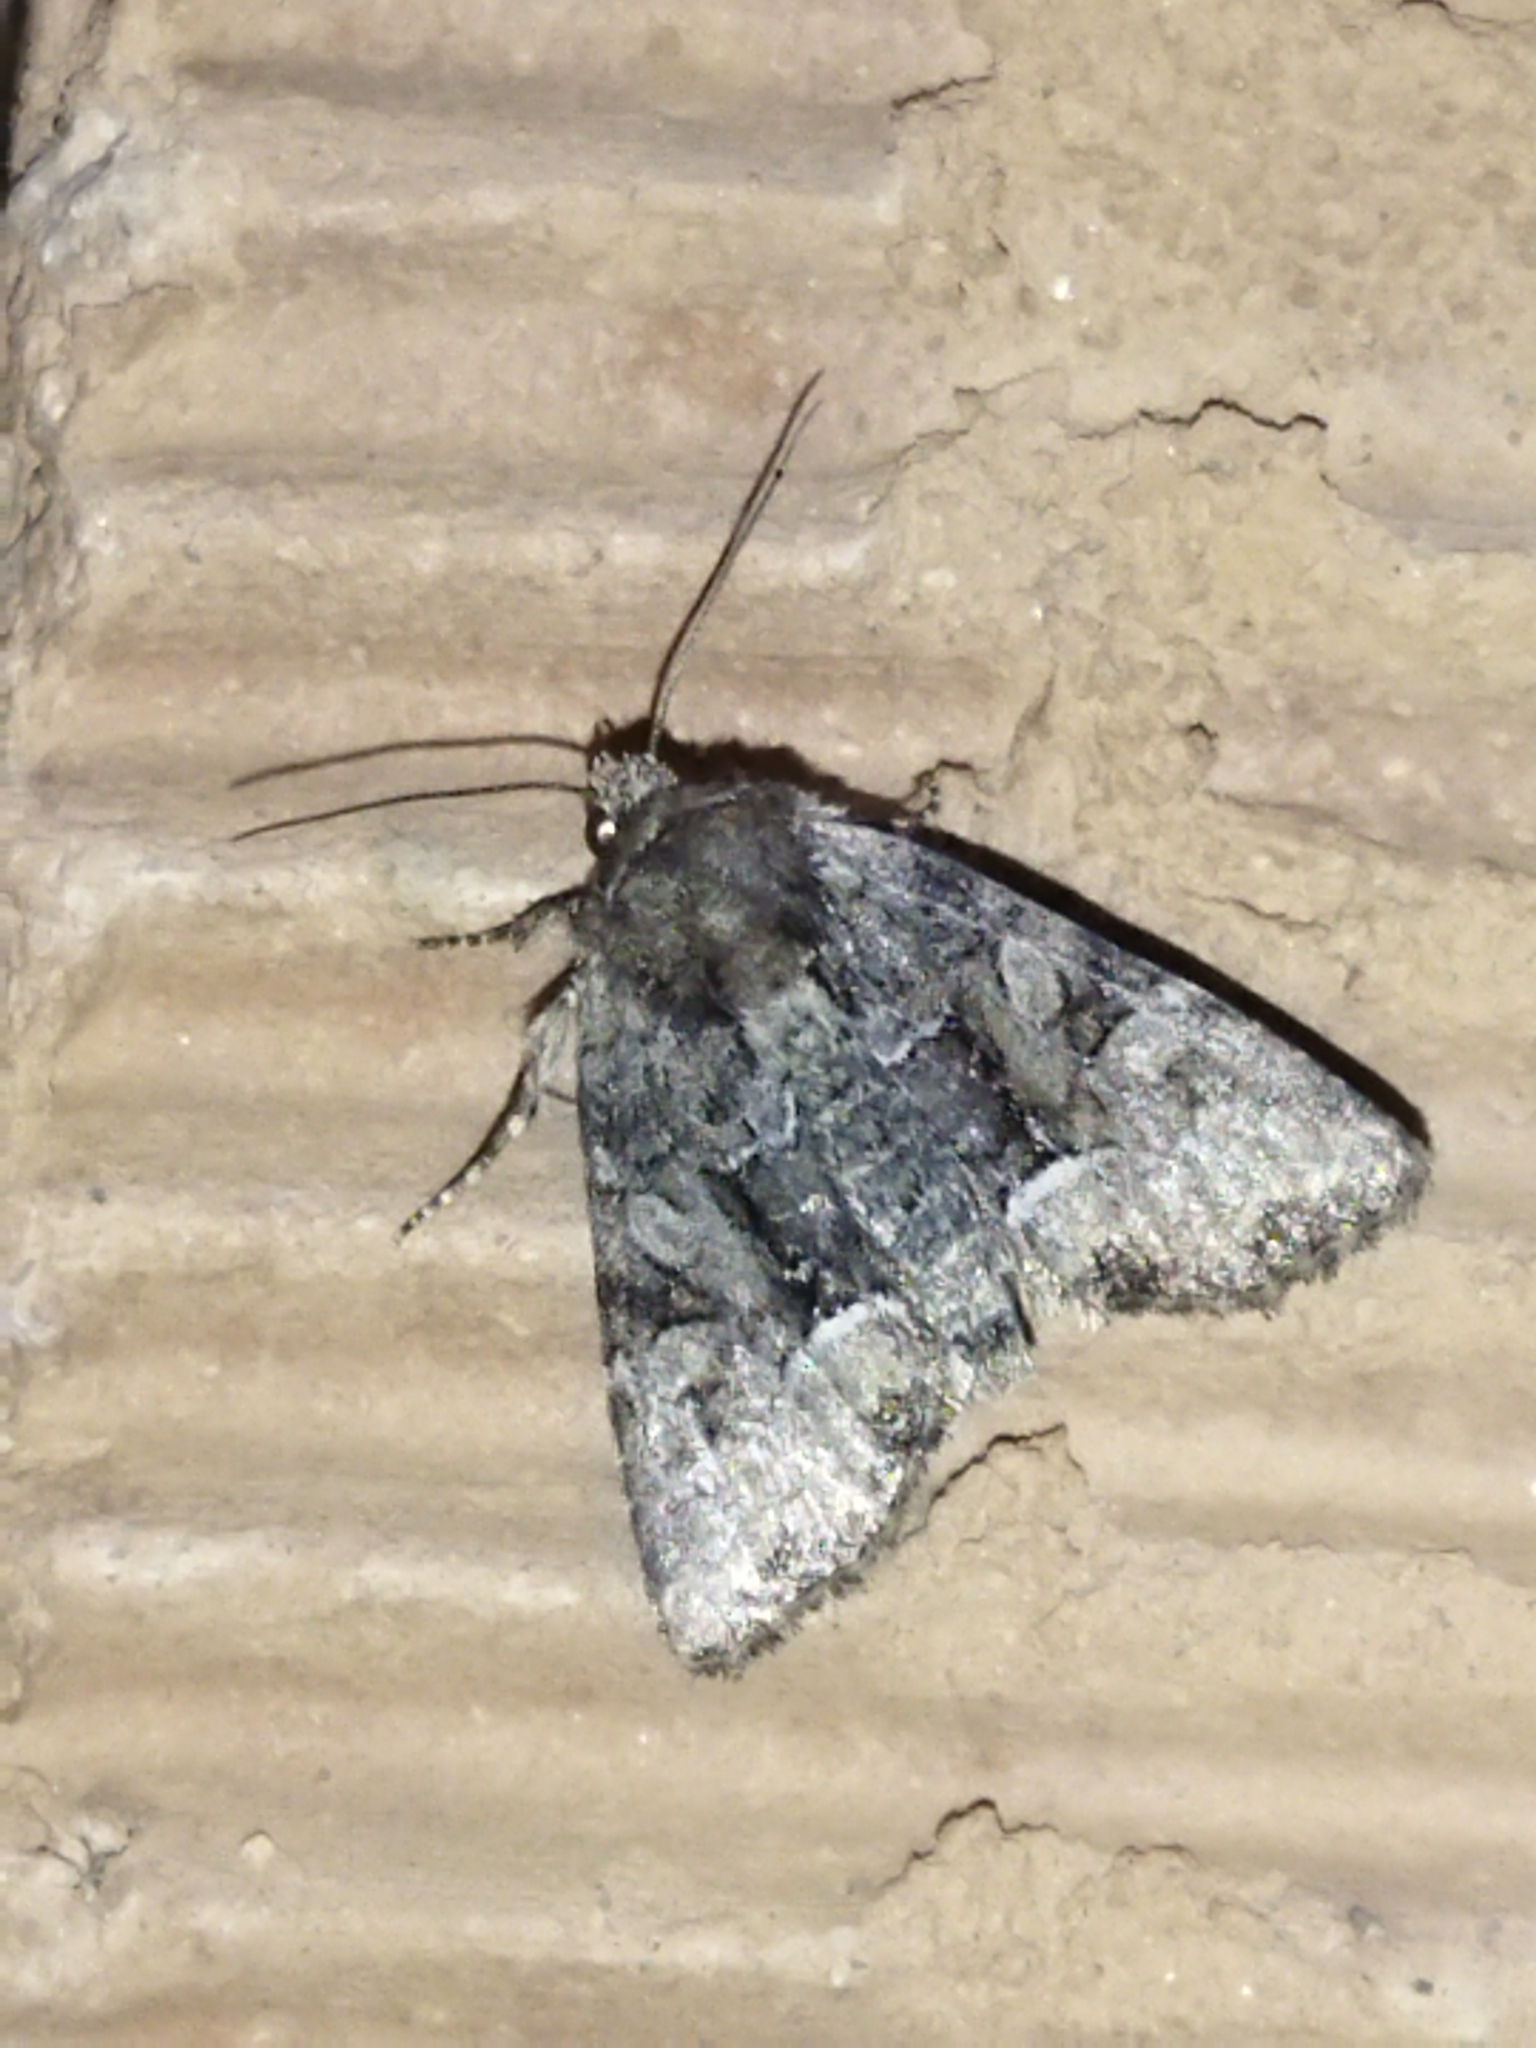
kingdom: Animalia
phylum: Arthropoda
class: Insecta
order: Lepidoptera
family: Noctuidae
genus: Oligia
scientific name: Oligia
